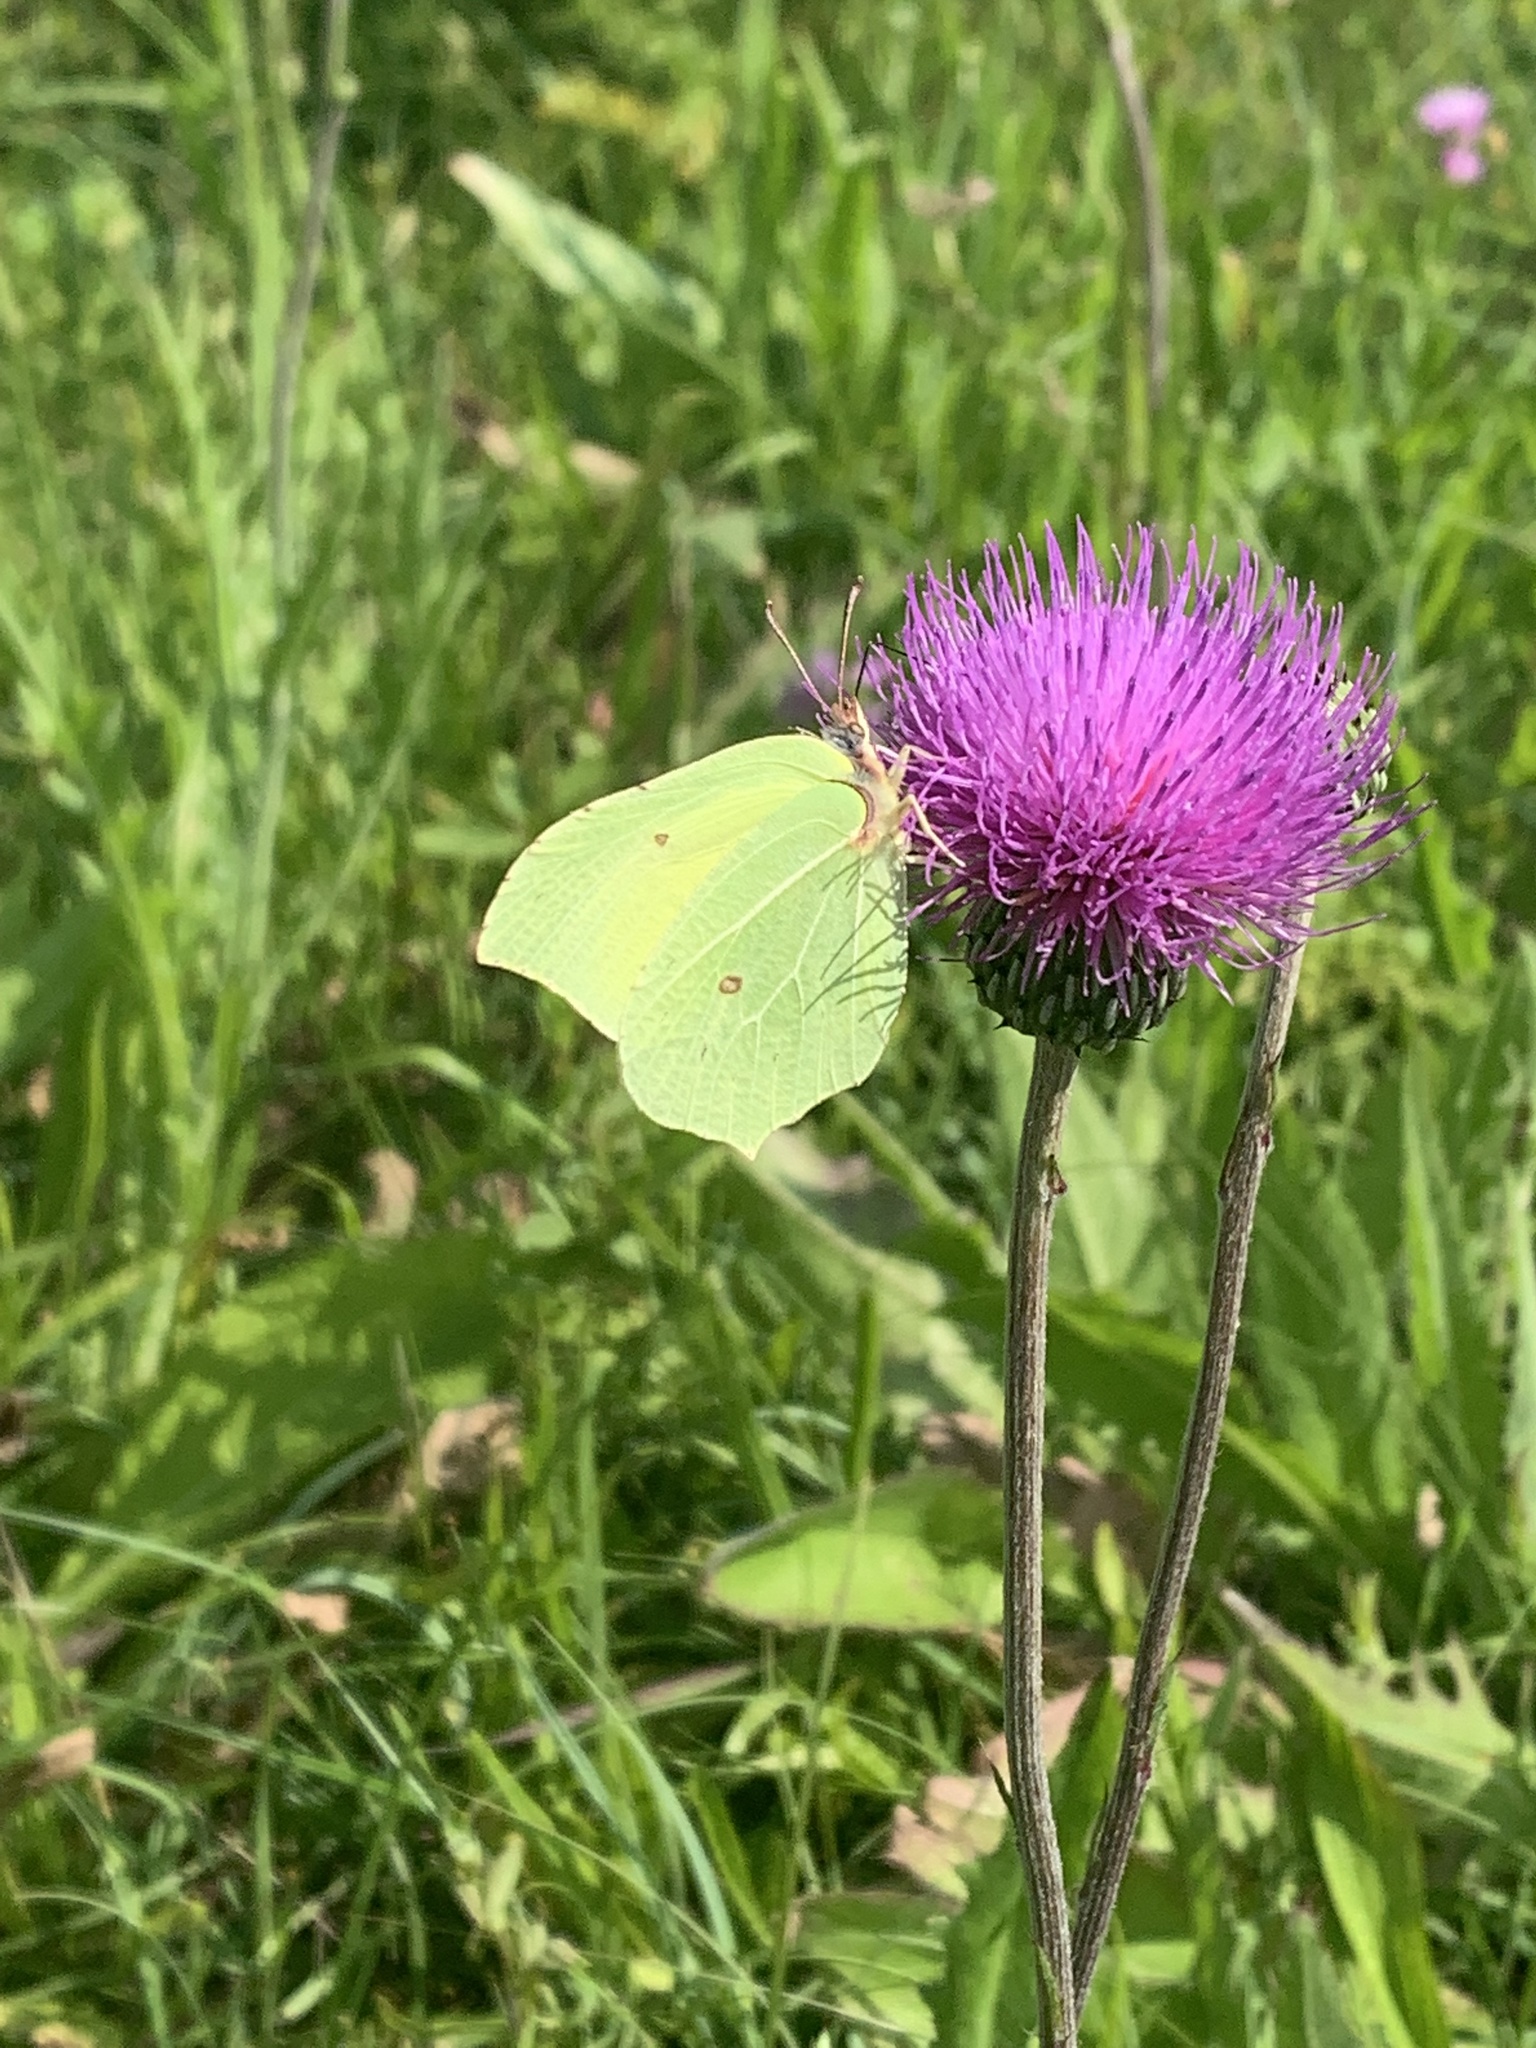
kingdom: Animalia
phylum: Arthropoda
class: Insecta
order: Lepidoptera
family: Pieridae
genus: Gonepteryx
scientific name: Gonepteryx rhamni
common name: Brimstone
